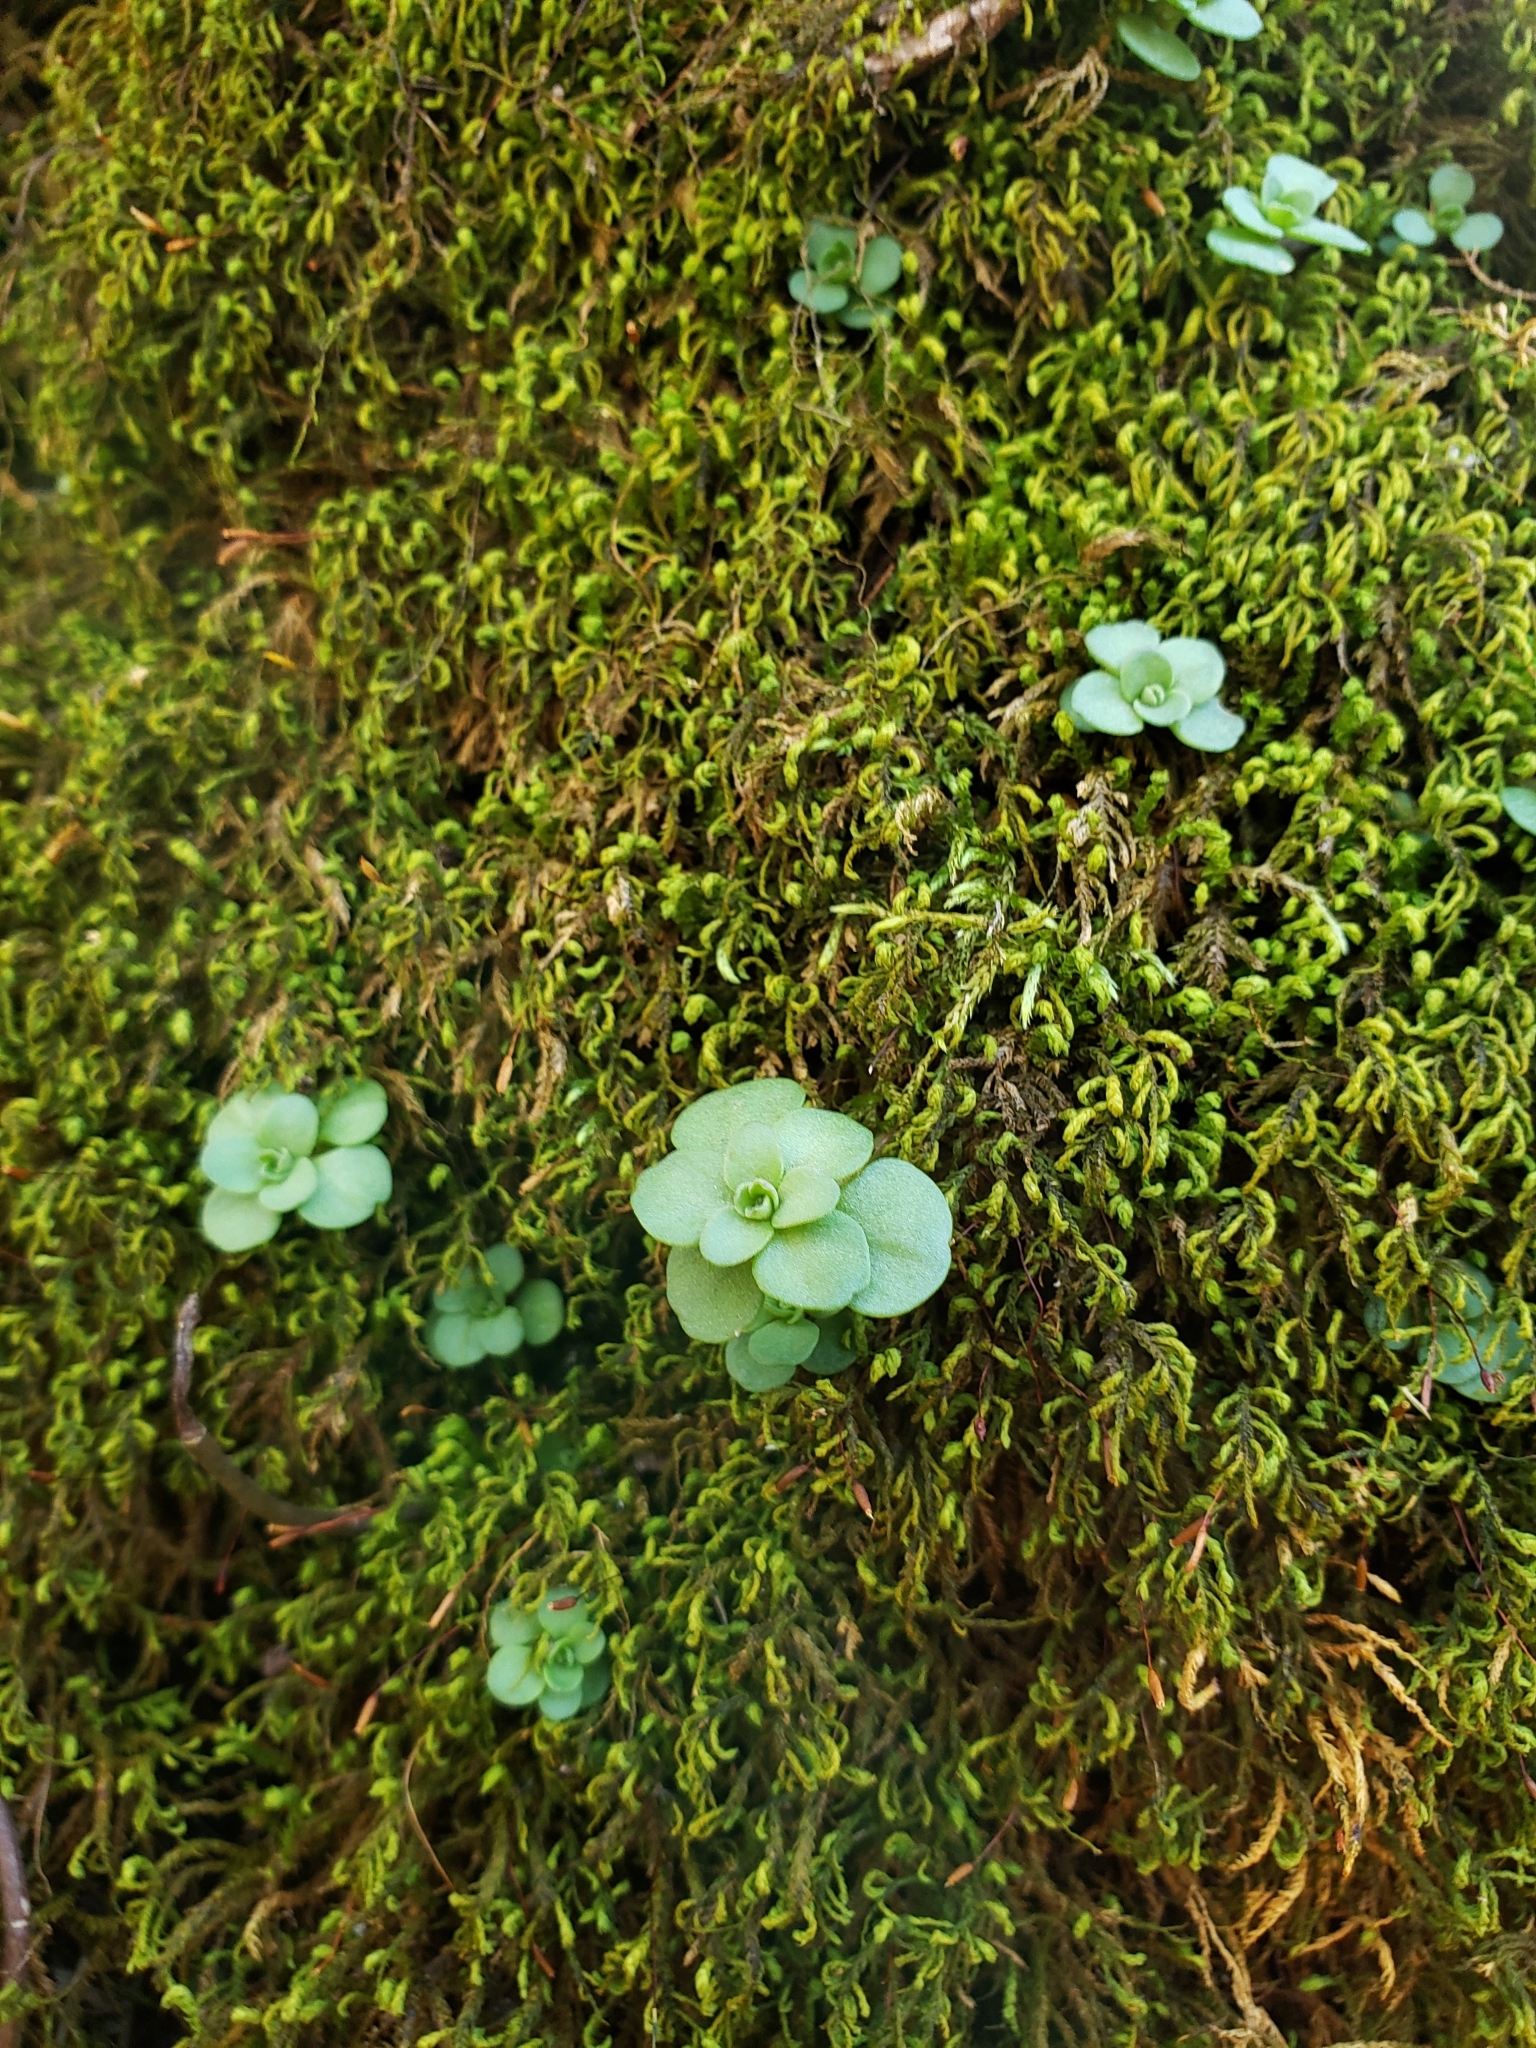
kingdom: Plantae
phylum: Tracheophyta
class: Magnoliopsida
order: Saxifragales
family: Crassulaceae
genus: Sedum
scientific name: Sedum ternatum
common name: Wild stonecrop
